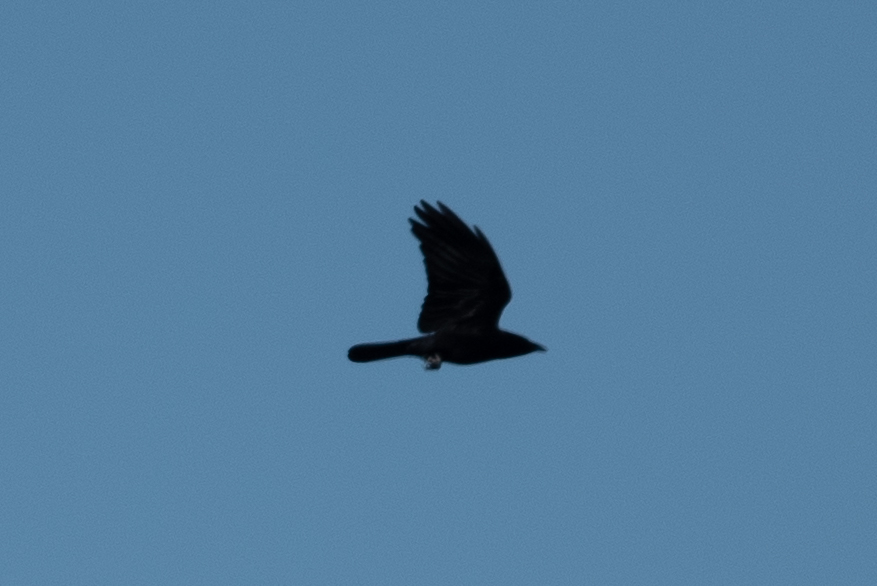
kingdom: Animalia
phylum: Chordata
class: Aves
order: Passeriformes
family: Corvidae
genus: Corvus
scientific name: Corvus brachyrhynchos
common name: American crow
